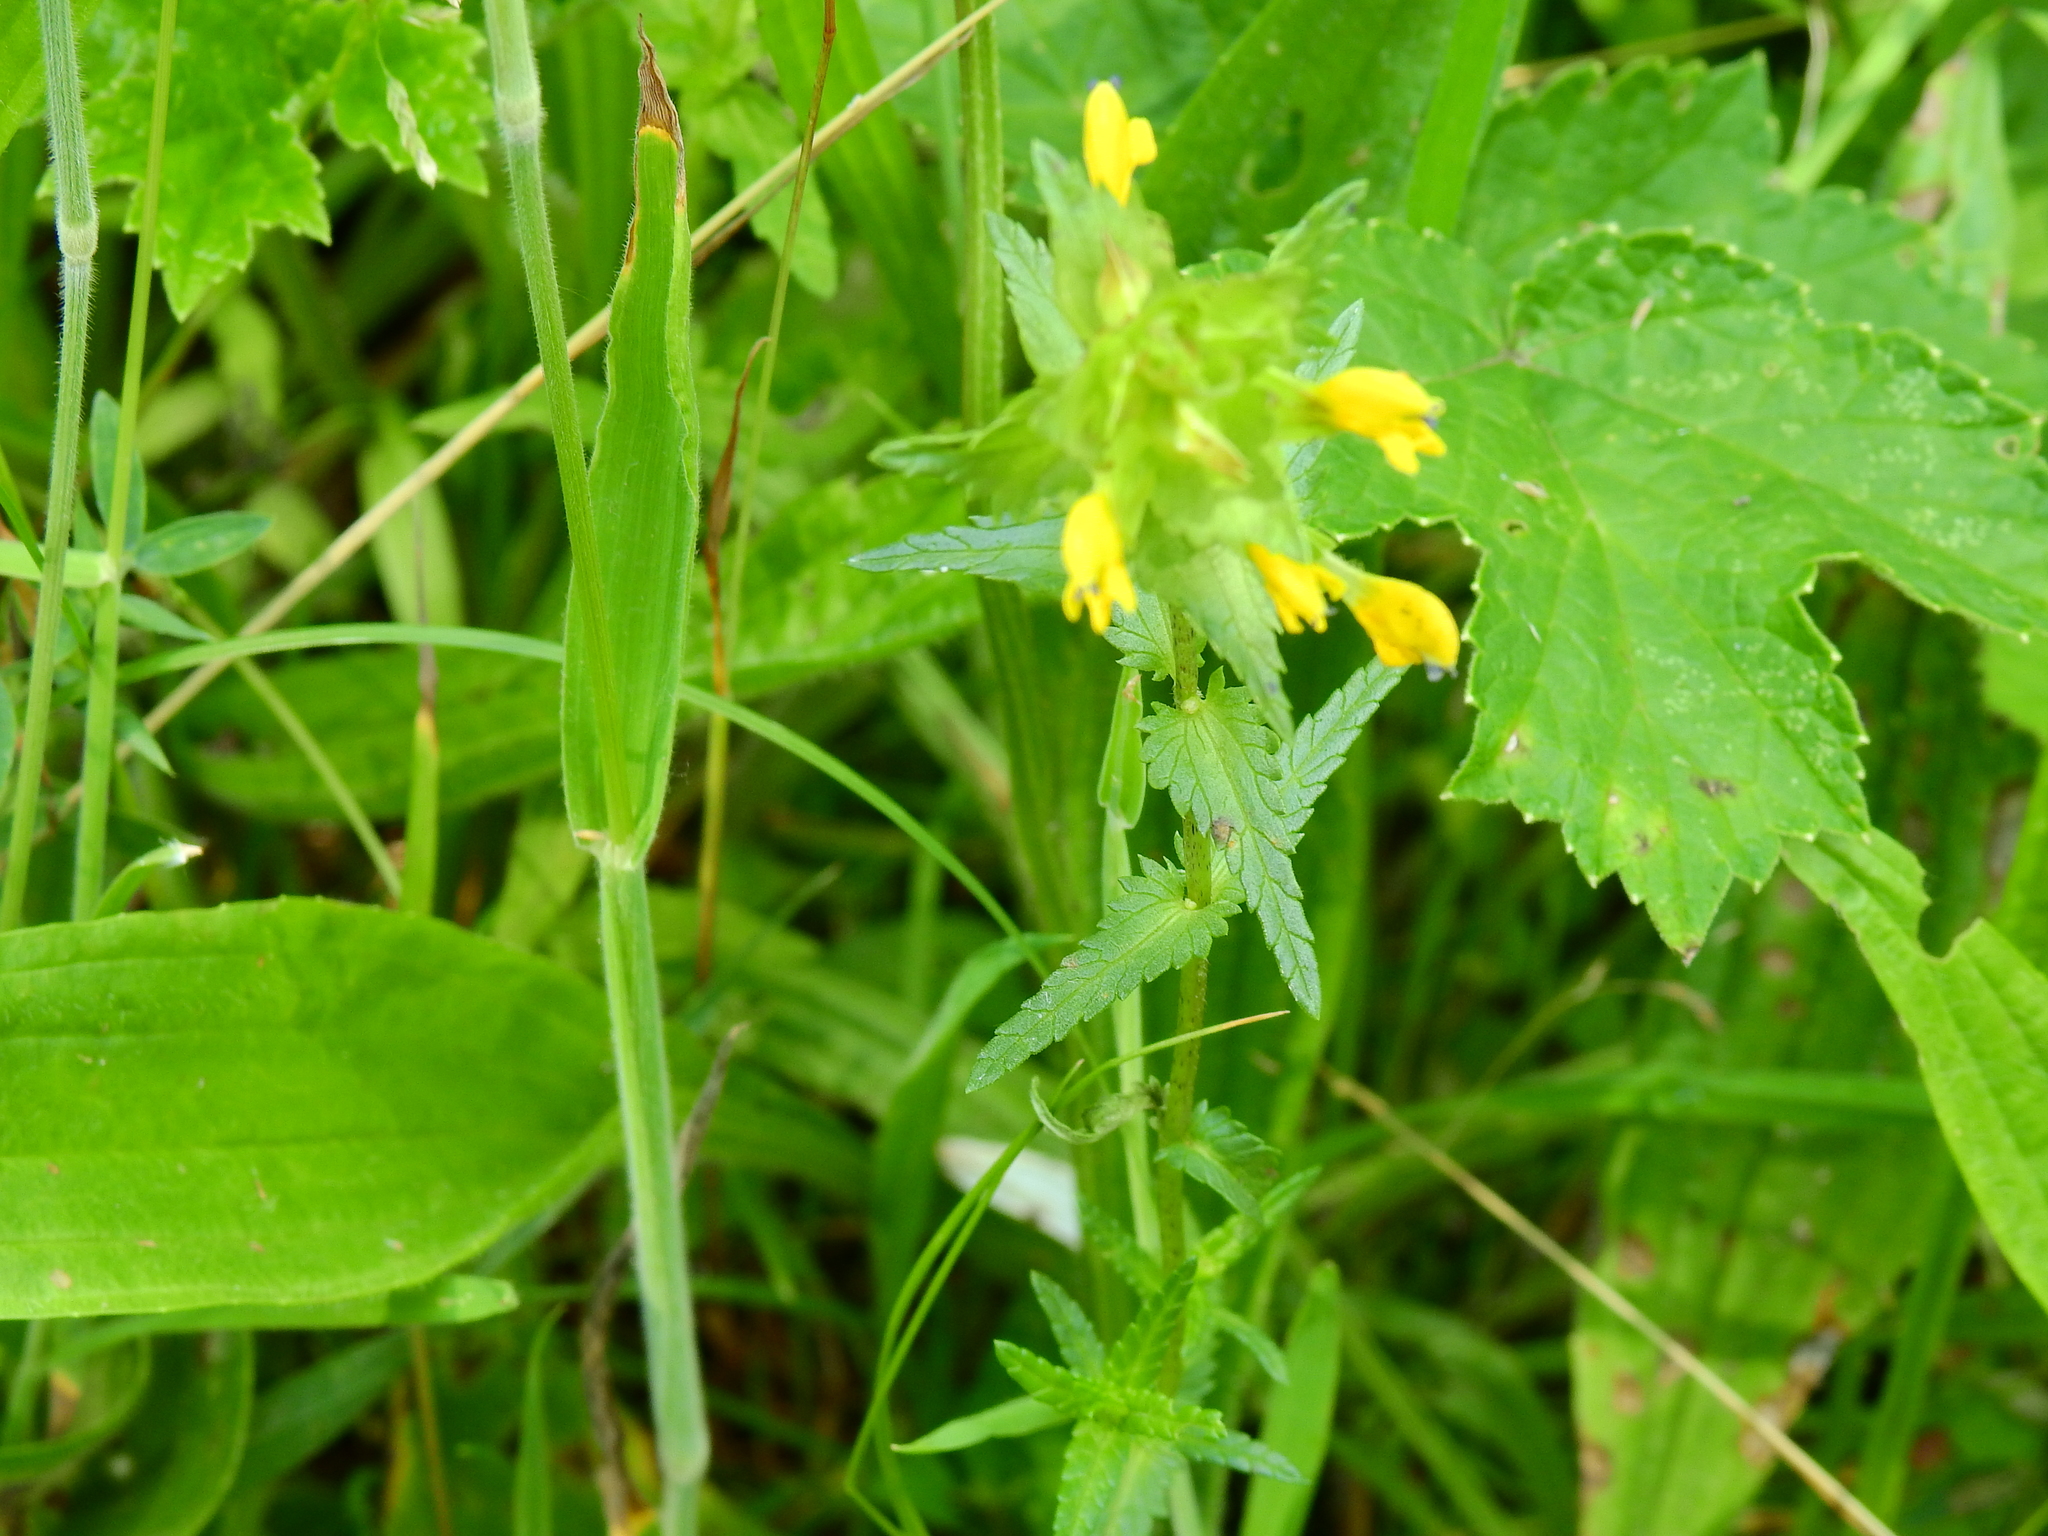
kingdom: Plantae
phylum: Tracheophyta
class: Magnoliopsida
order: Lamiales
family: Orobanchaceae
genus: Rhinanthus
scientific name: Rhinanthus minor
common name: Yellow-rattle
